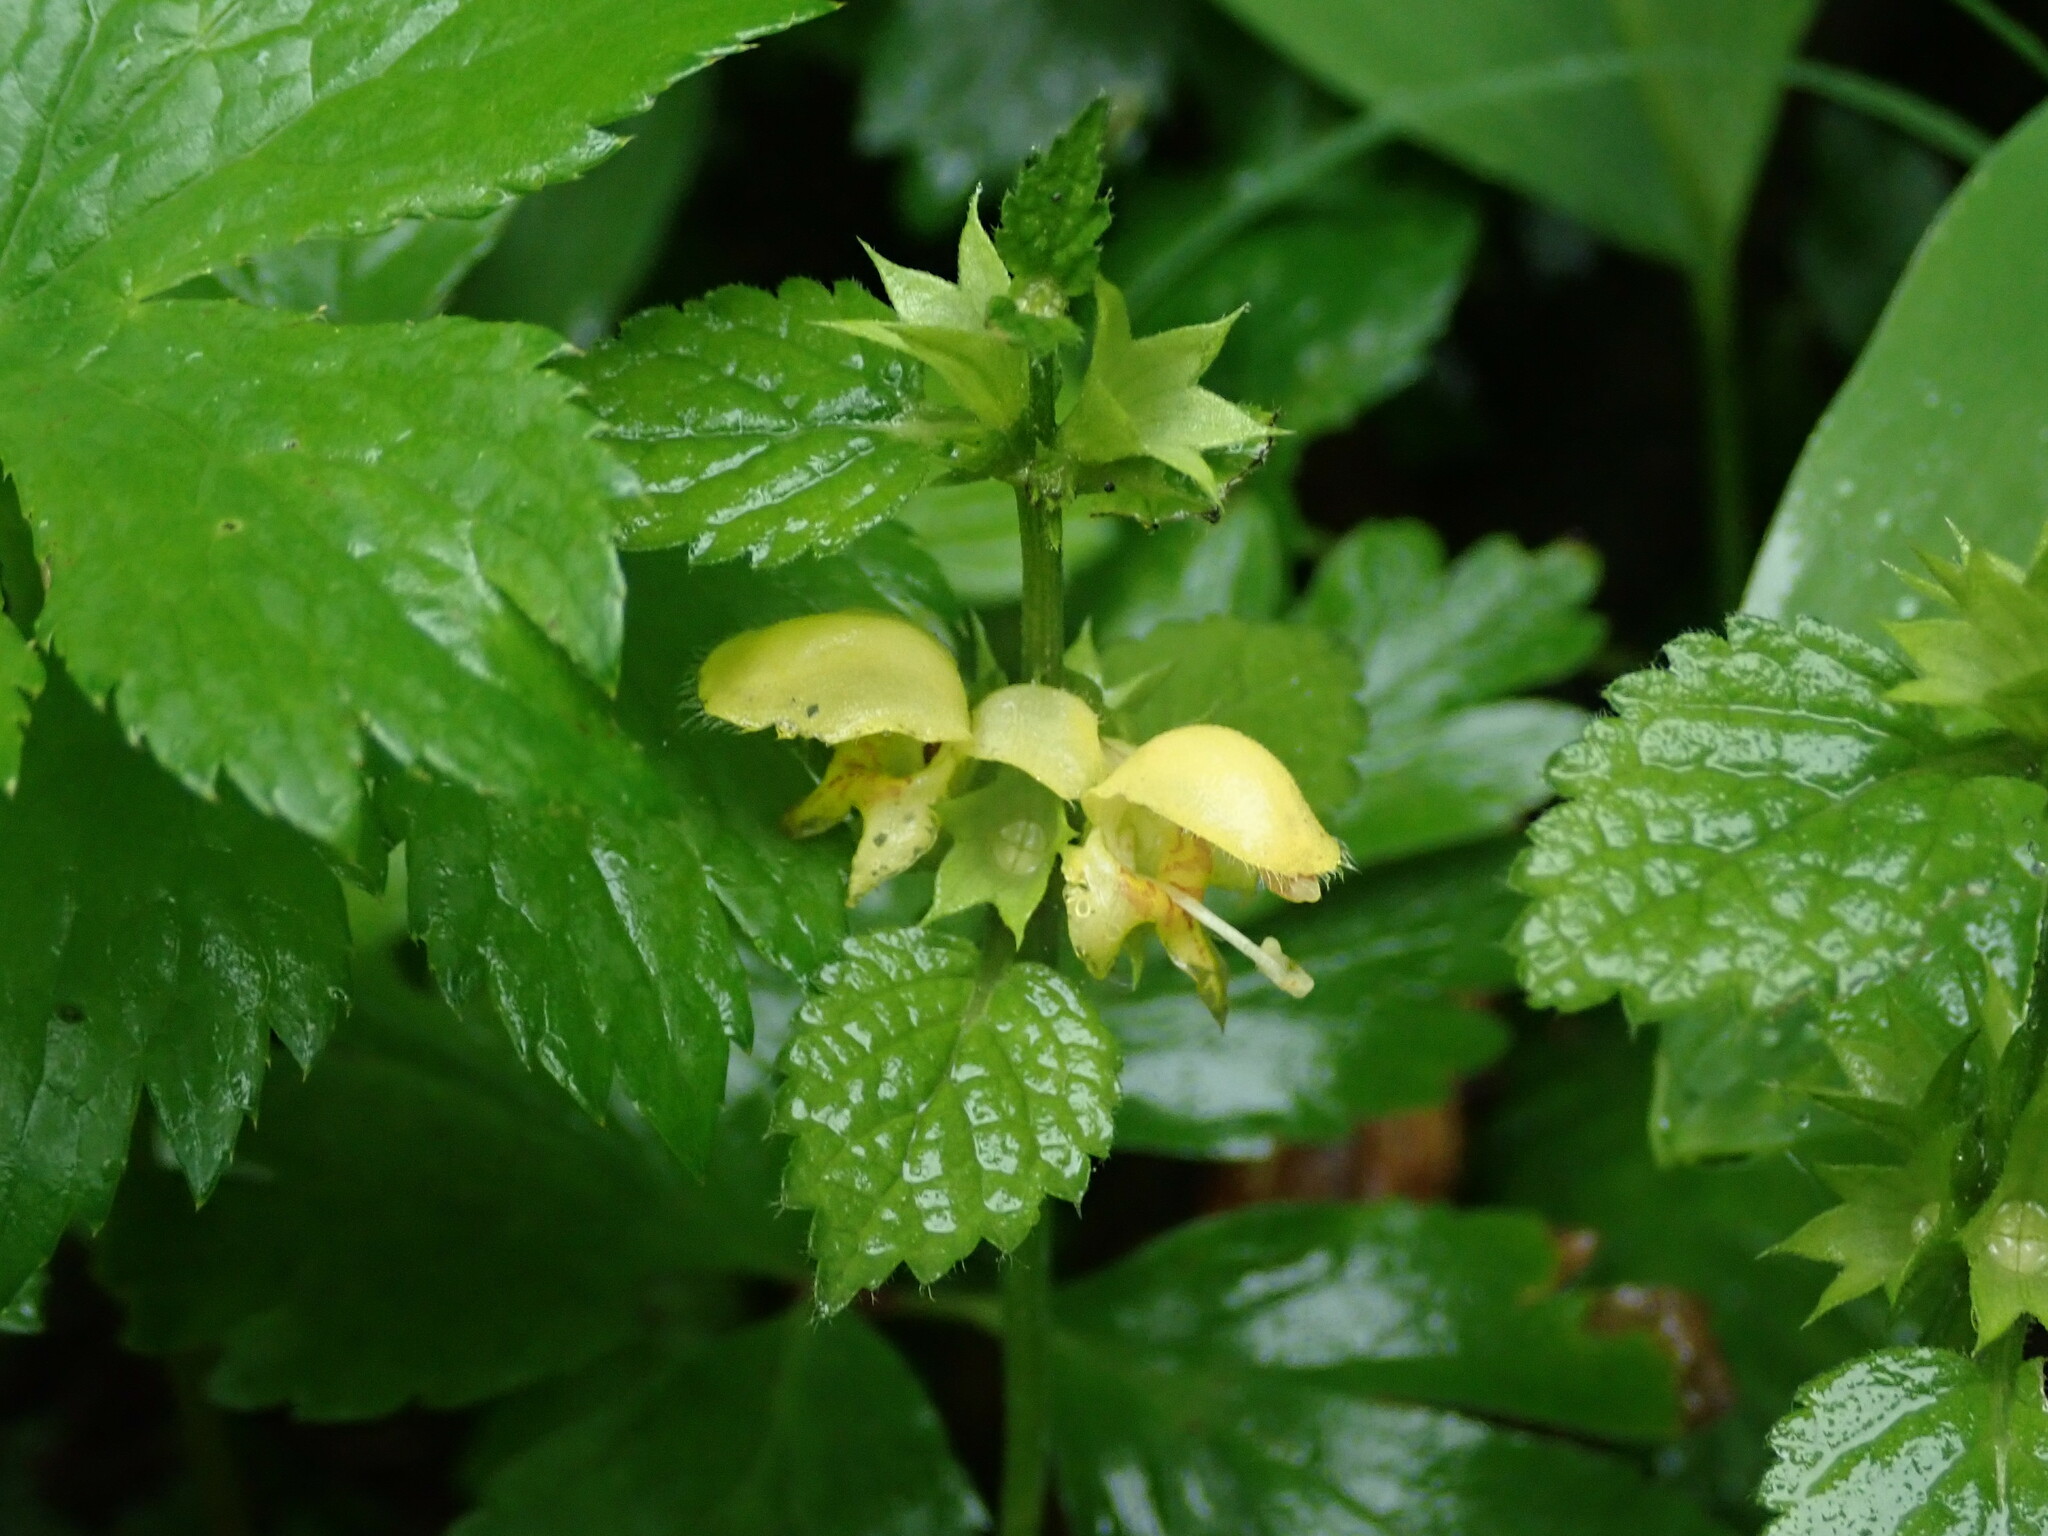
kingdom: Plantae
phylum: Tracheophyta
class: Magnoliopsida
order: Lamiales
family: Lamiaceae
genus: Lamium
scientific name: Lamium galeobdolon
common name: Yellow archangel
